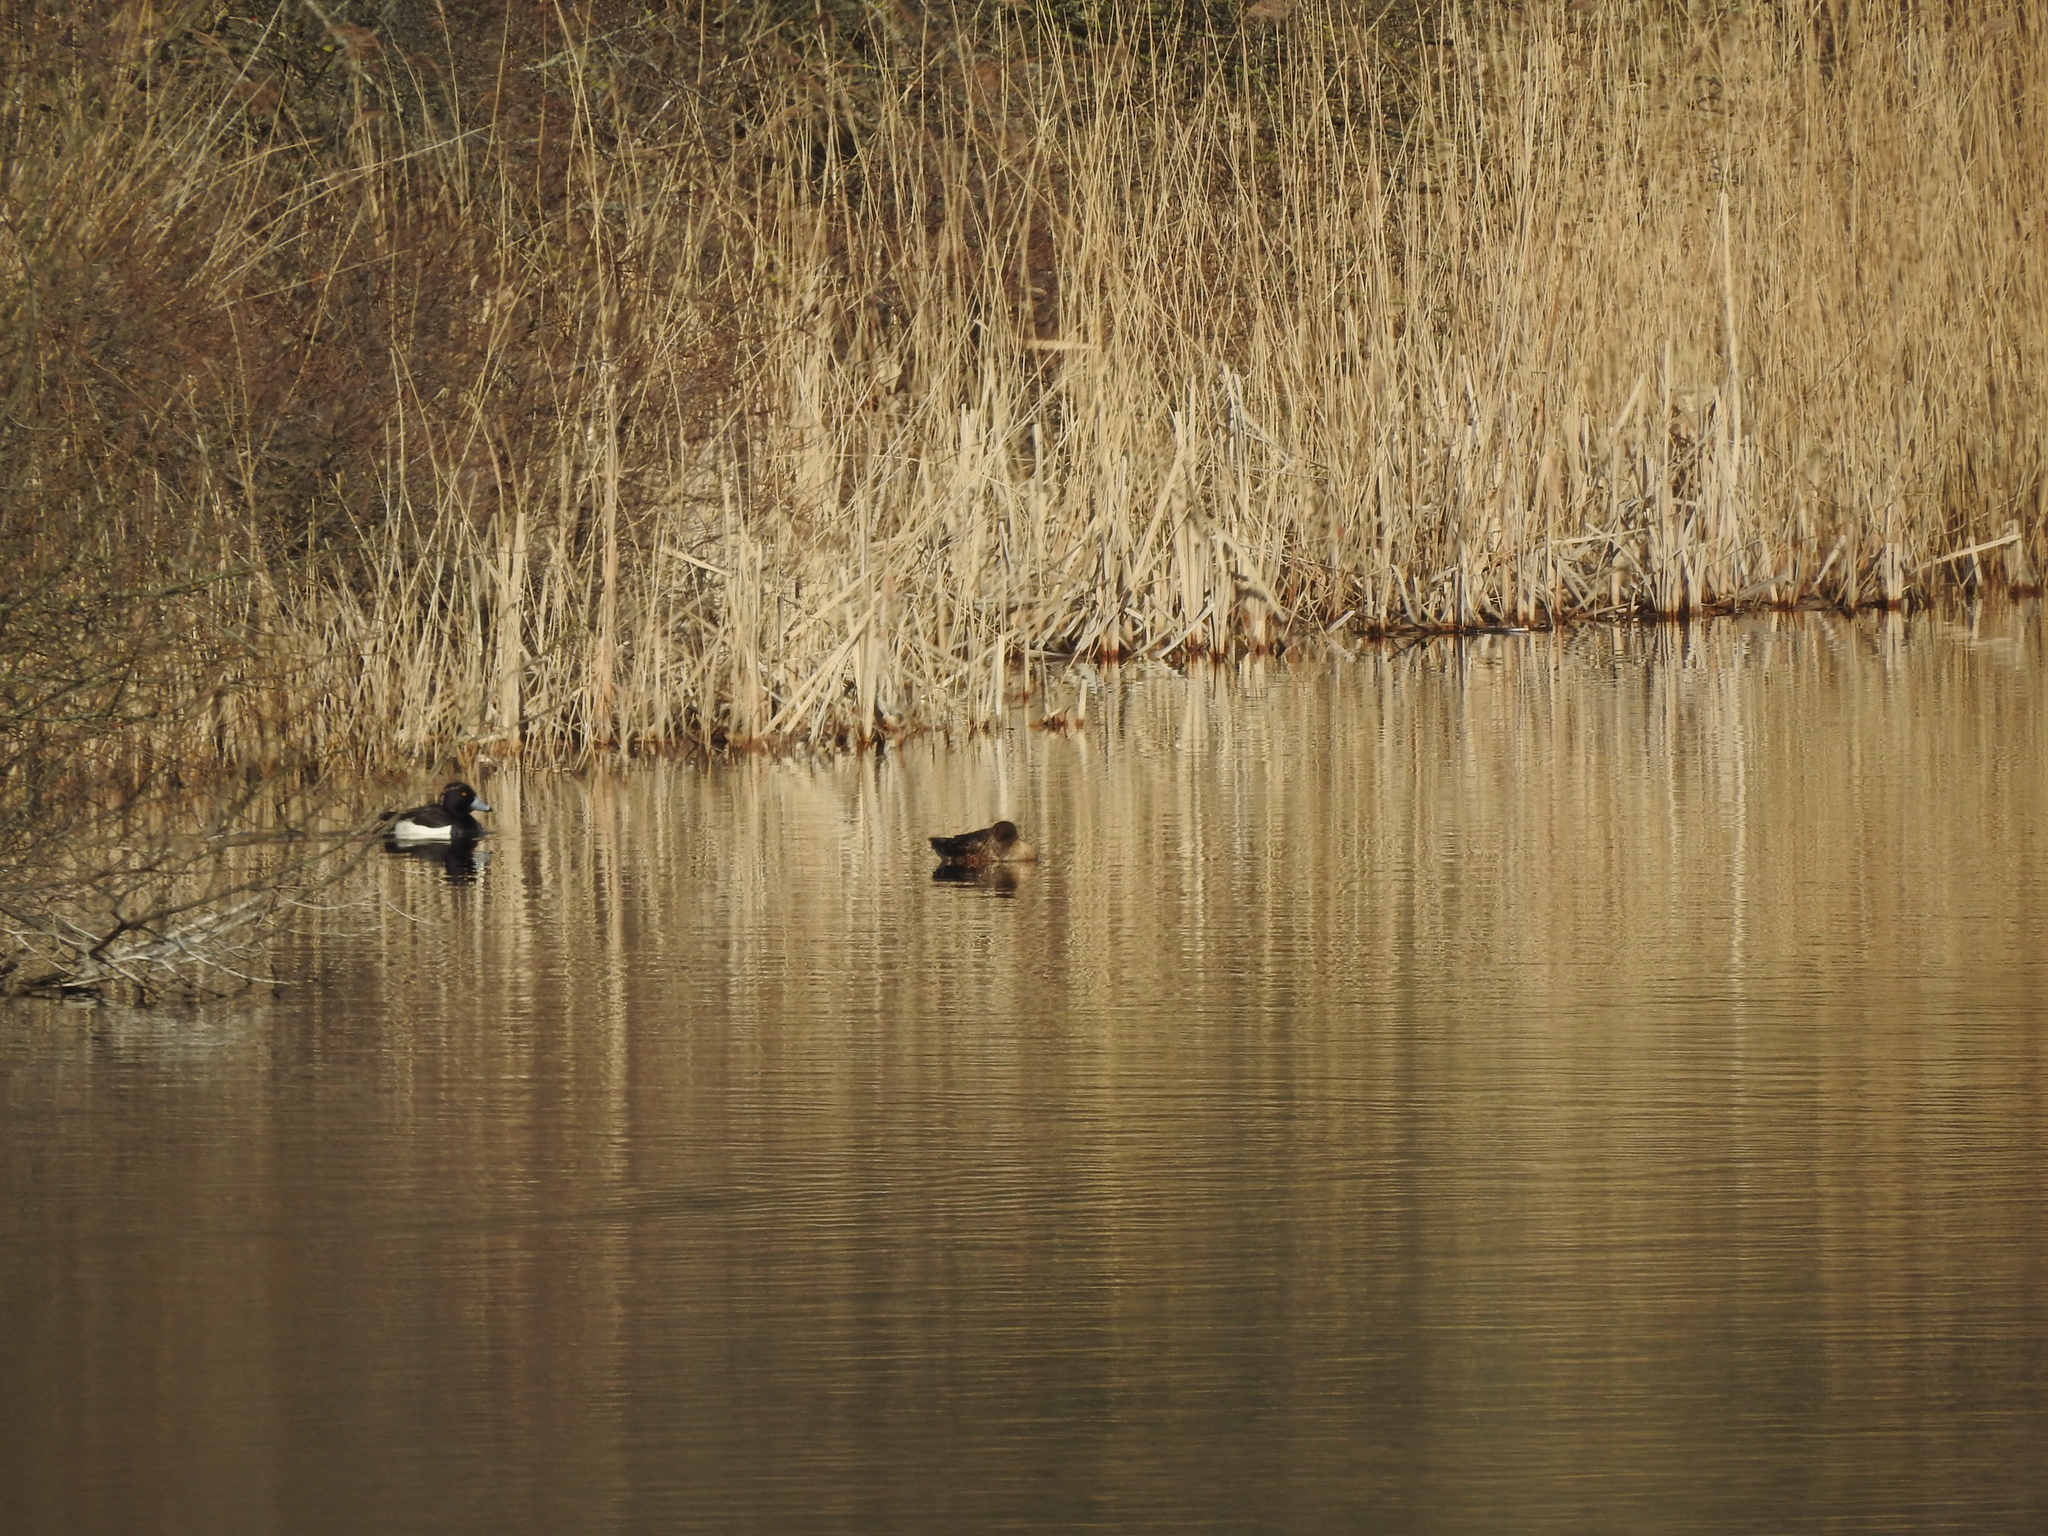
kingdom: Animalia
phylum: Chordata
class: Aves
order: Anseriformes
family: Anatidae
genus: Aythya
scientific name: Aythya fuligula
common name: Tufted duck
